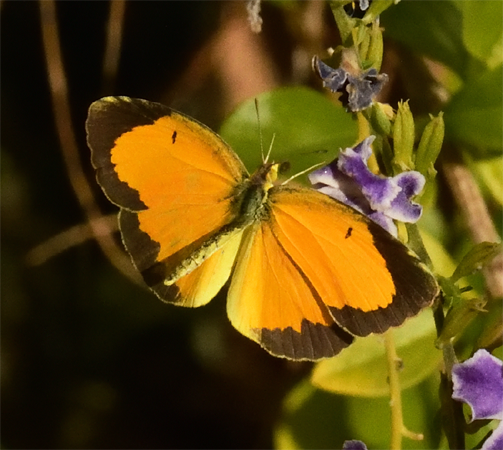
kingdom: Animalia
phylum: Arthropoda
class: Insecta
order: Lepidoptera
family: Pieridae
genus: Abaeis
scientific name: Abaeis nicippe
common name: Sleepy orange
